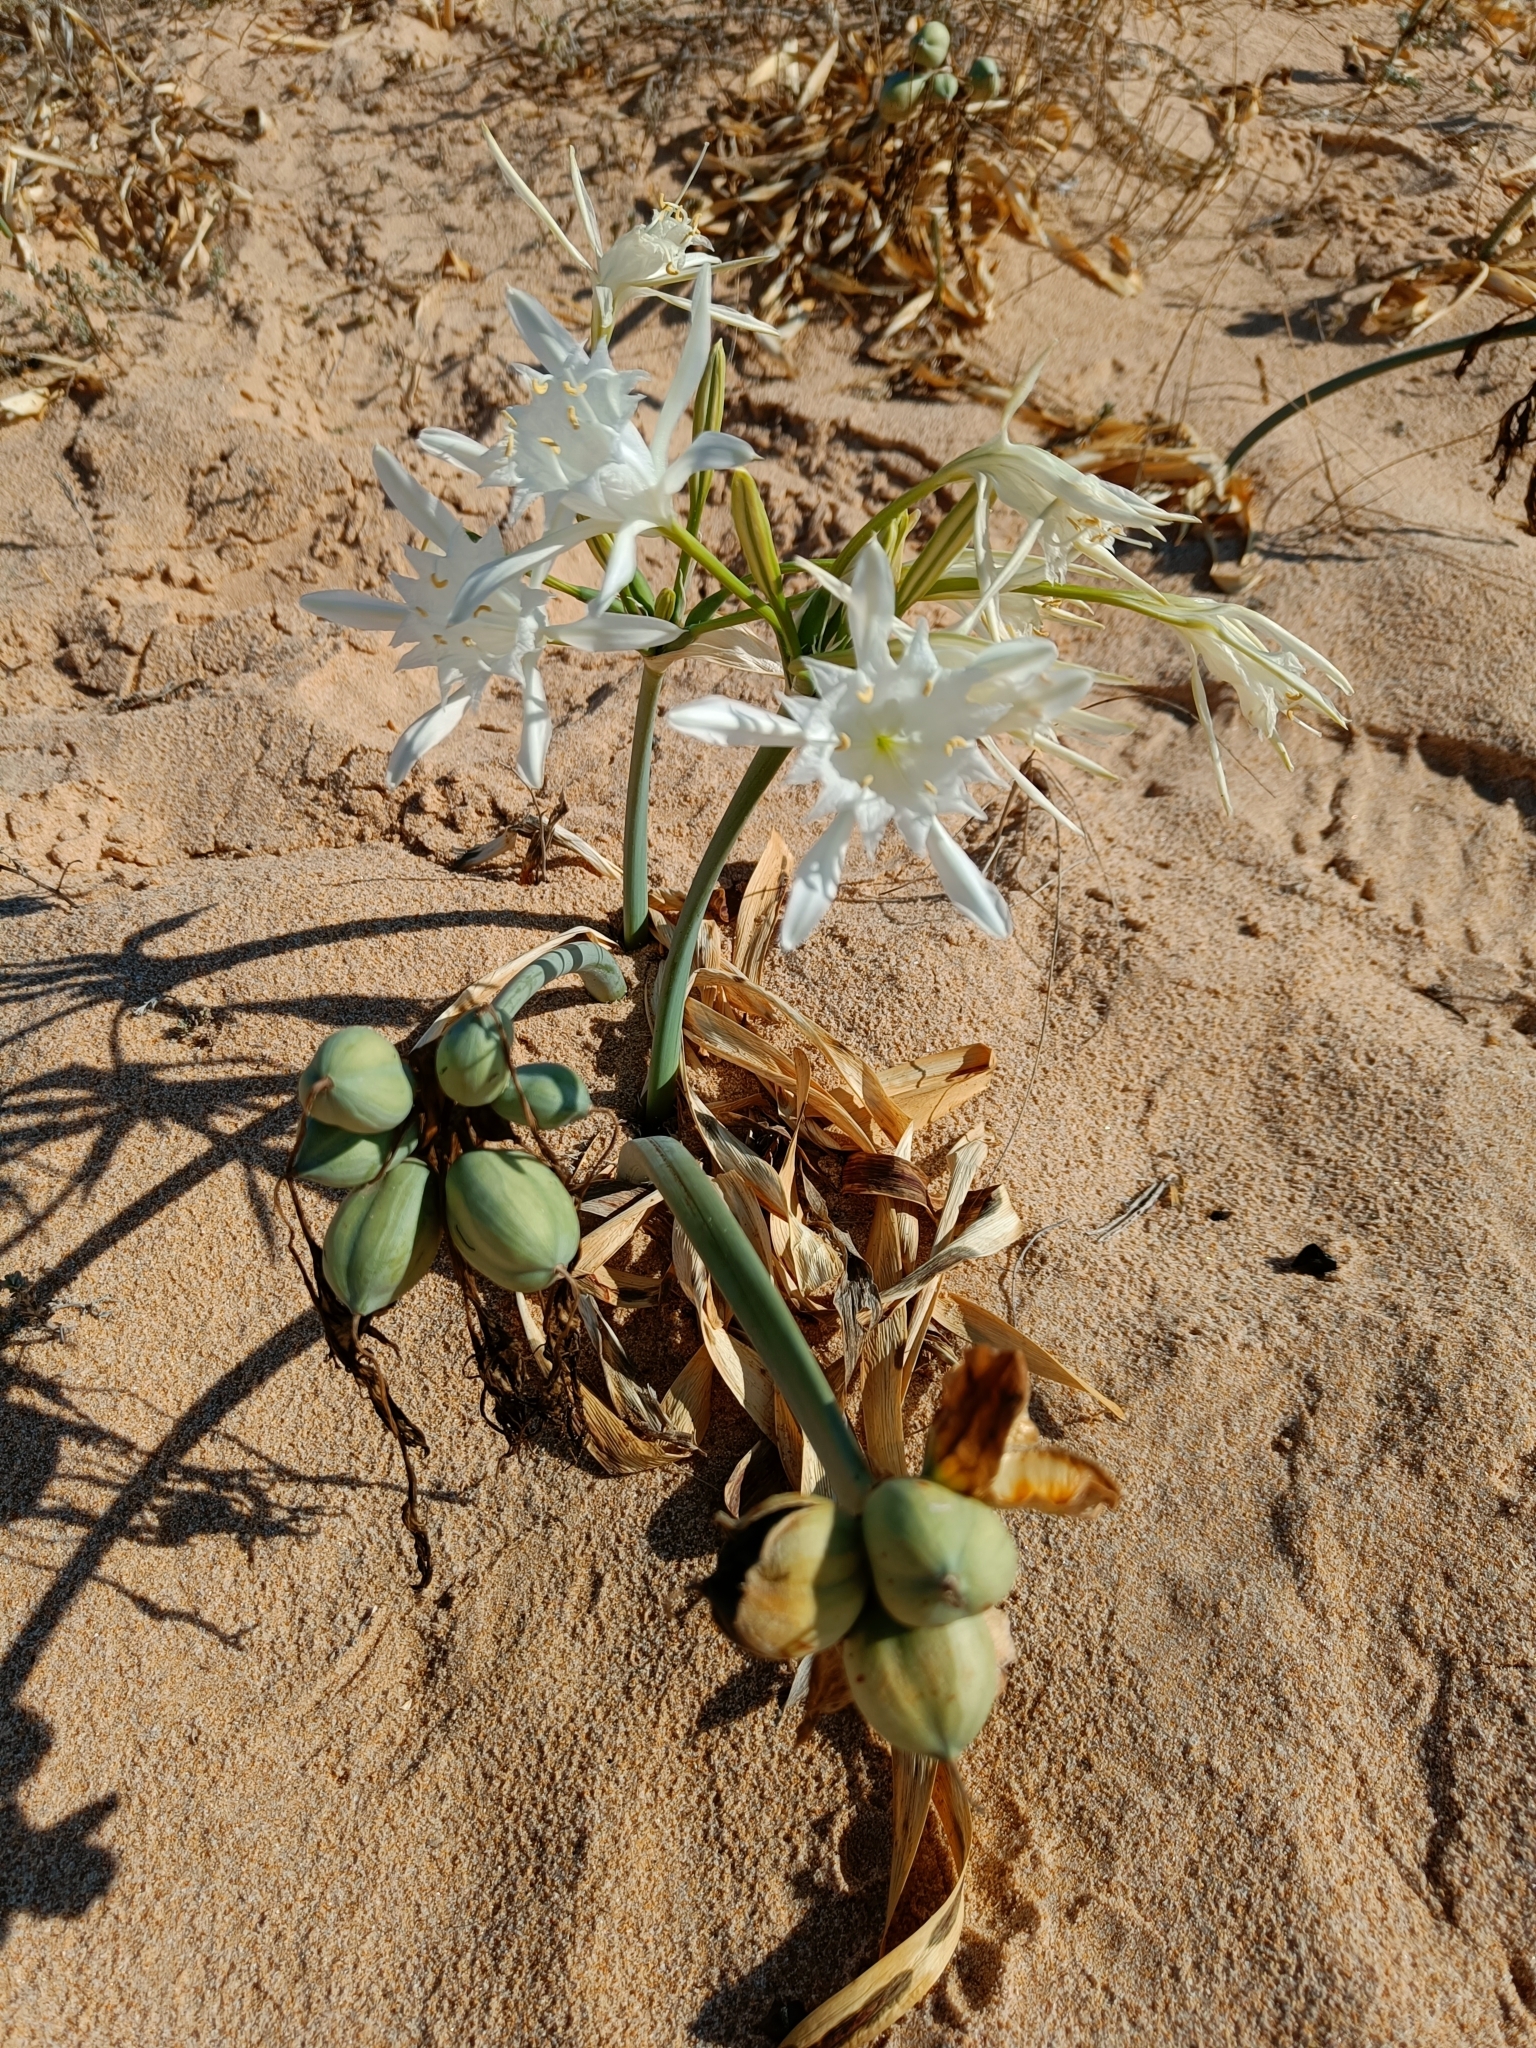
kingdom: Plantae
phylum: Tracheophyta
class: Liliopsida
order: Asparagales
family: Amaryllidaceae
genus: Pancratium
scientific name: Pancratium maritimum
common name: Sea-daffodil
